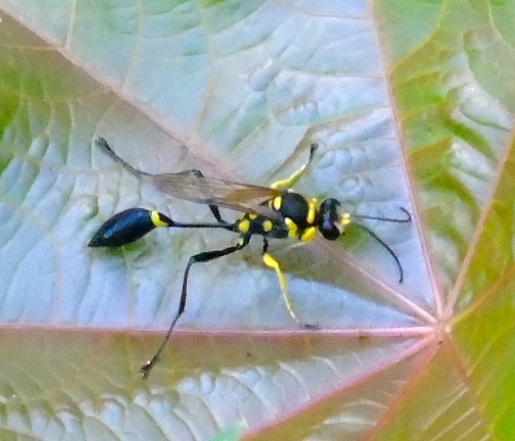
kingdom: Animalia
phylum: Arthropoda
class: Insecta
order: Hymenoptera
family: Sphecidae
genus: Sceliphron
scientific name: Sceliphron fistularium
